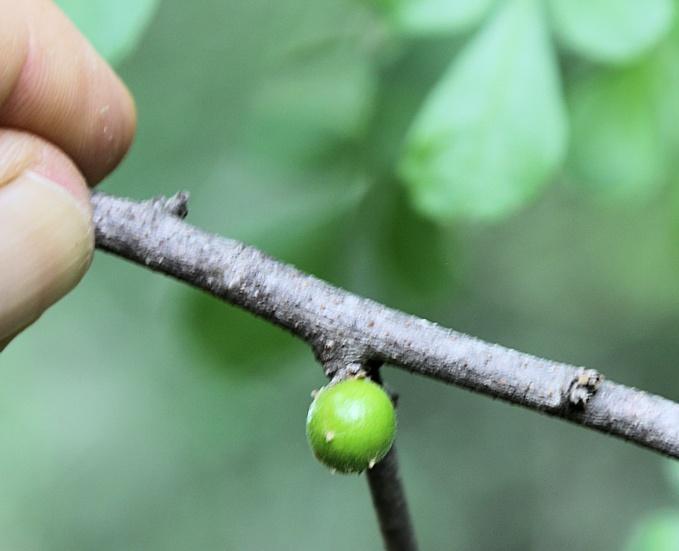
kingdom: Plantae
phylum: Tracheophyta
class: Magnoliopsida
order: Sapindales
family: Anacardiaceae
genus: Searsia
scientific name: Searsia pentheri
